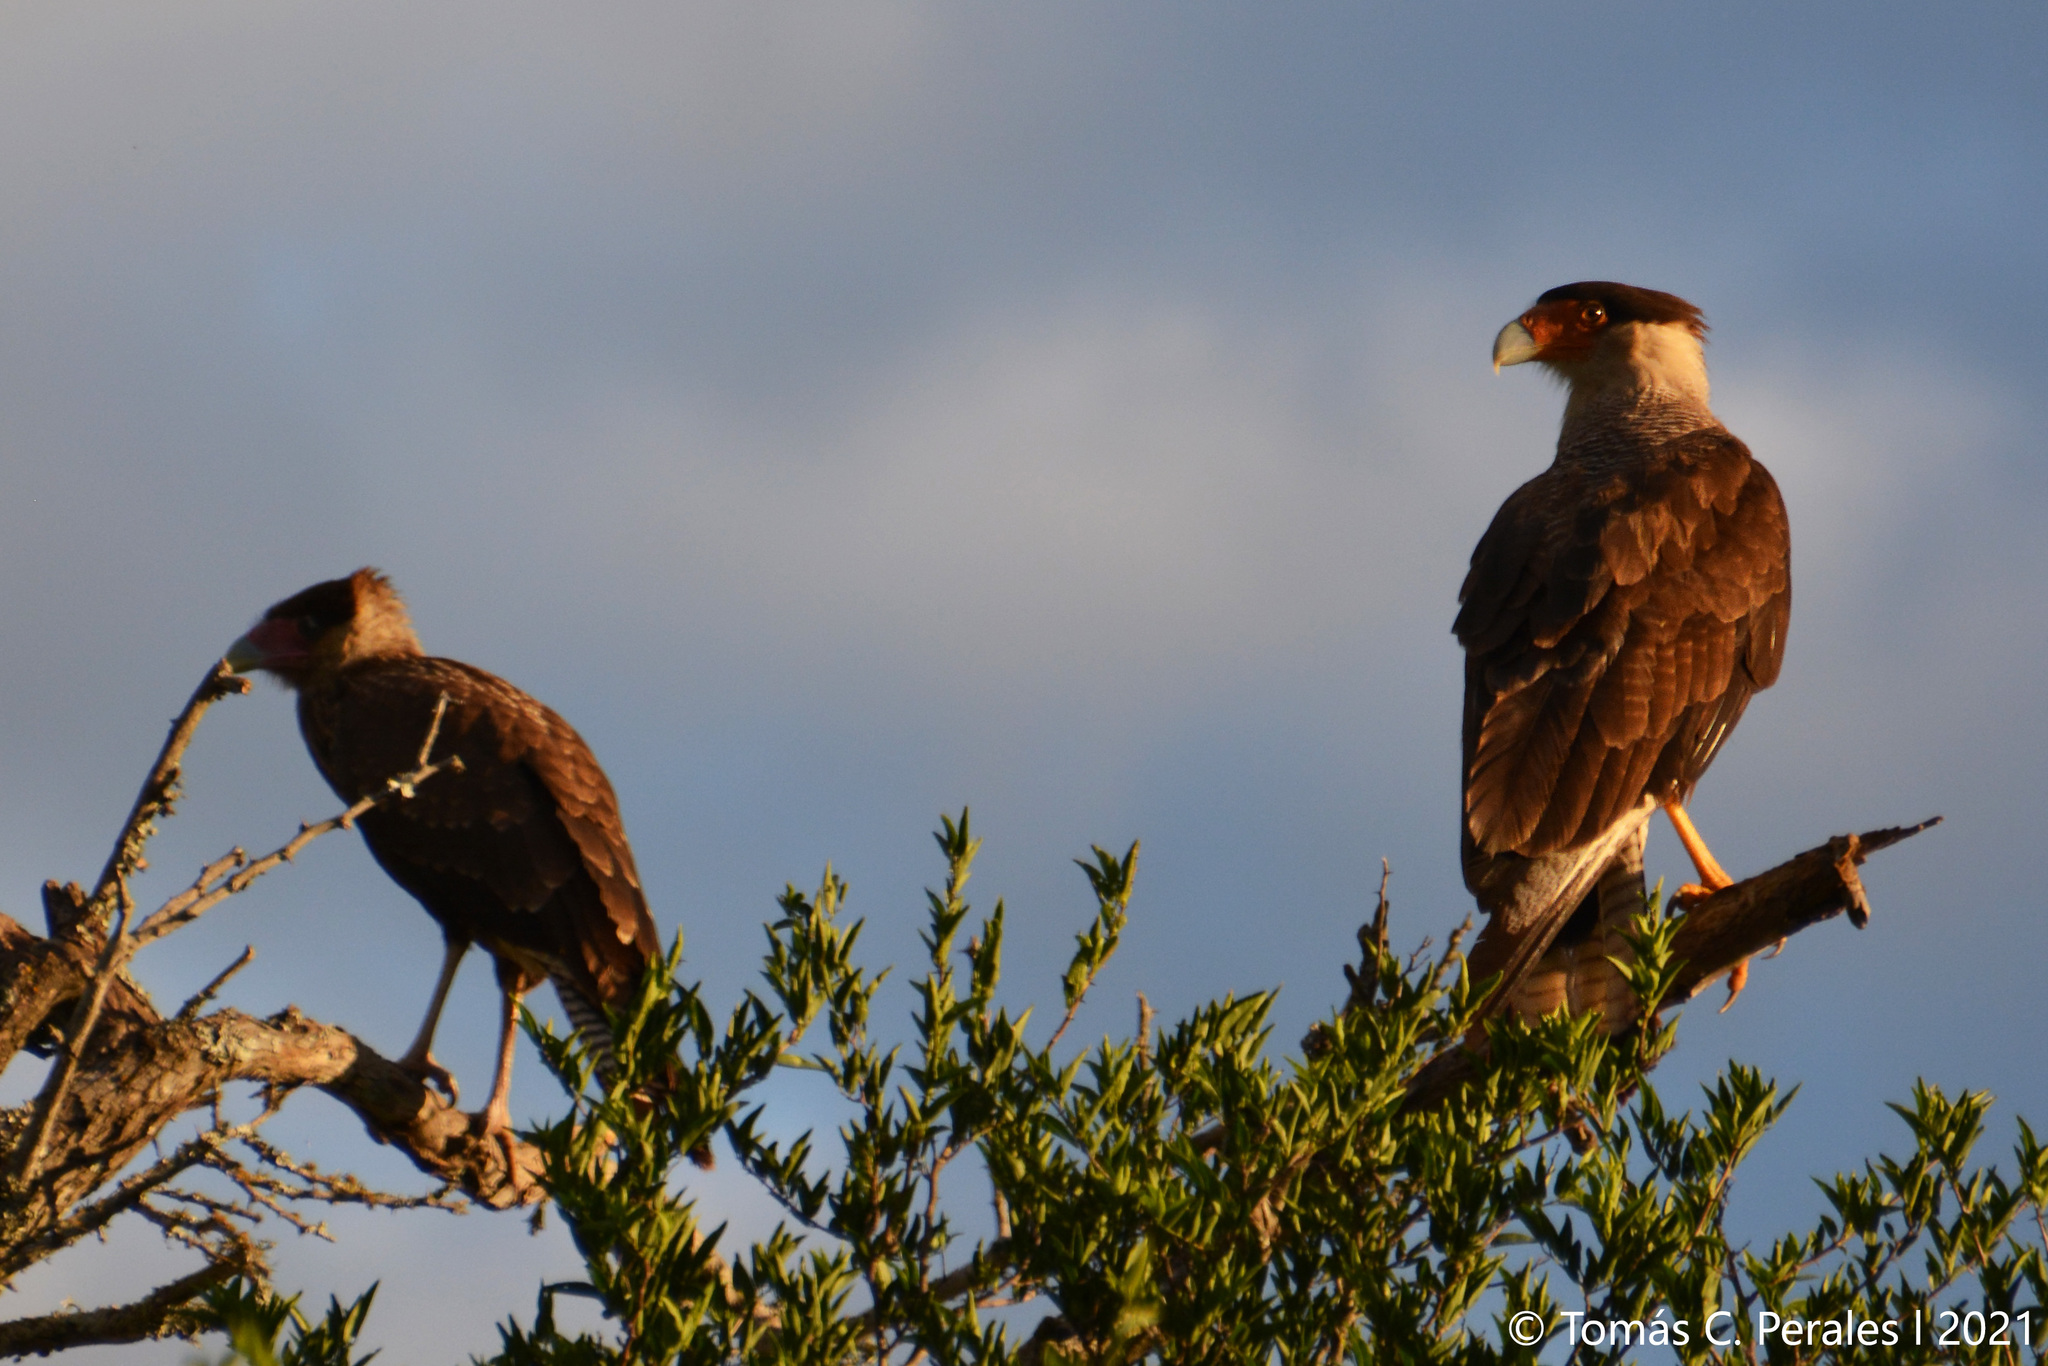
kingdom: Animalia
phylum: Chordata
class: Aves
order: Falconiformes
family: Falconidae
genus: Caracara
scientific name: Caracara plancus
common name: Southern caracara
